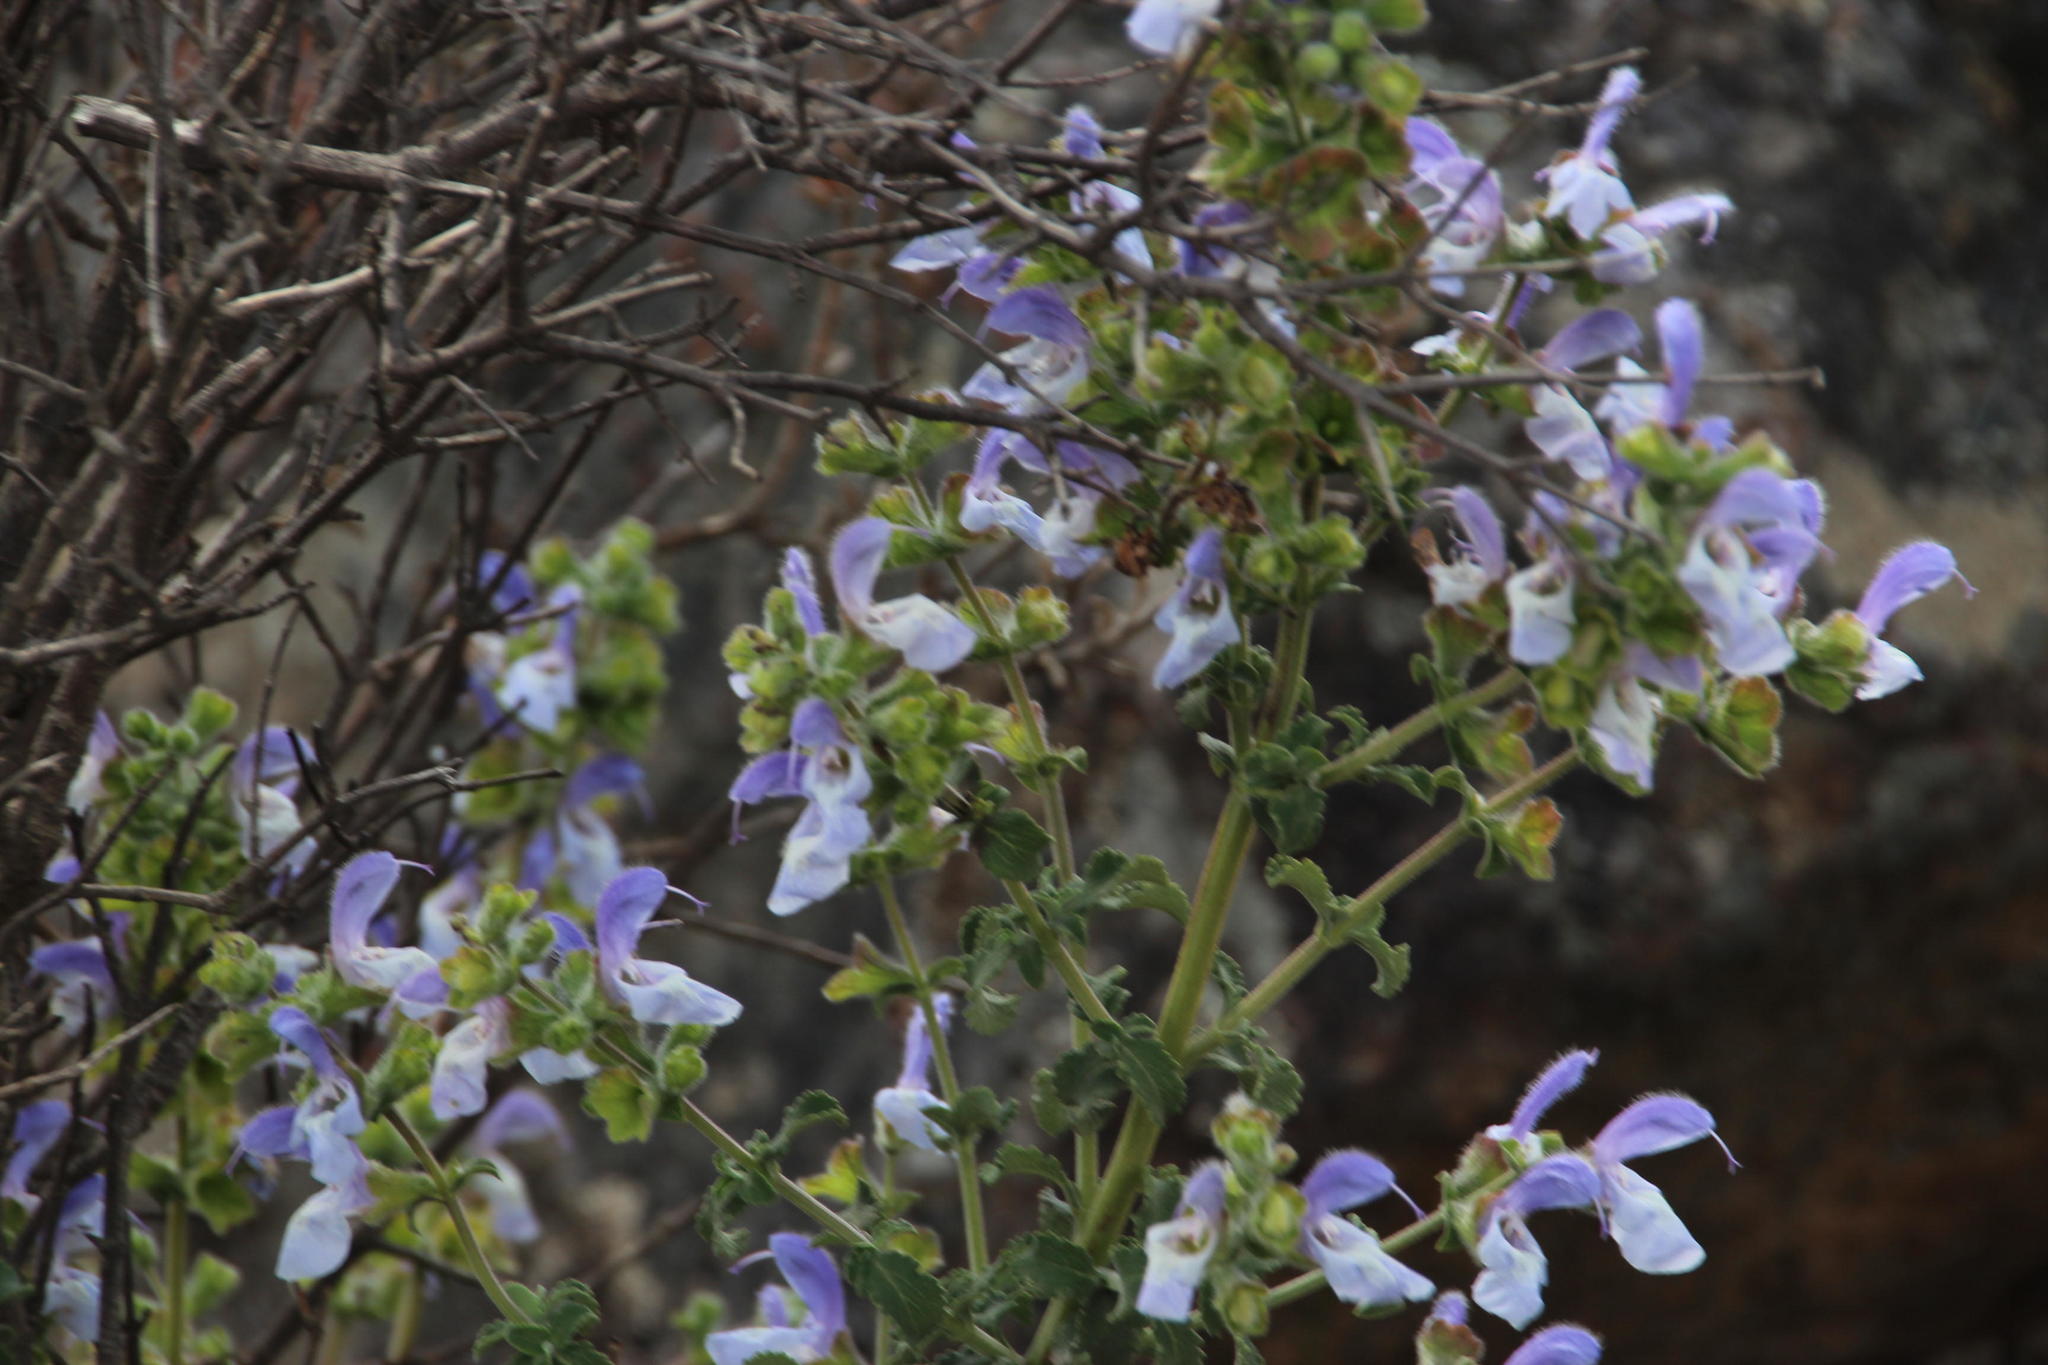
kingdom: Plantae
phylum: Tracheophyta
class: Magnoliopsida
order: Lamiales
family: Lamiaceae
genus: Salvia
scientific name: Salvia africana
